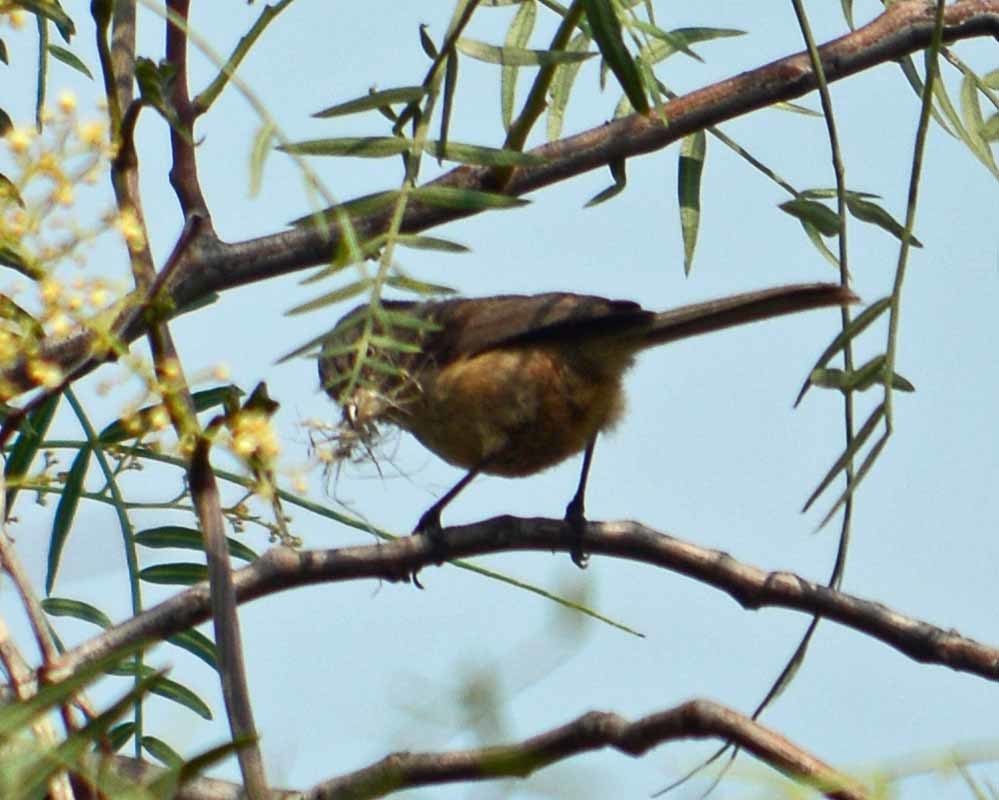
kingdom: Animalia
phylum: Chordata
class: Aves
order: Passeriformes
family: Aegithalidae
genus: Psaltriparus
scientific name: Psaltriparus minimus
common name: American bushtit
